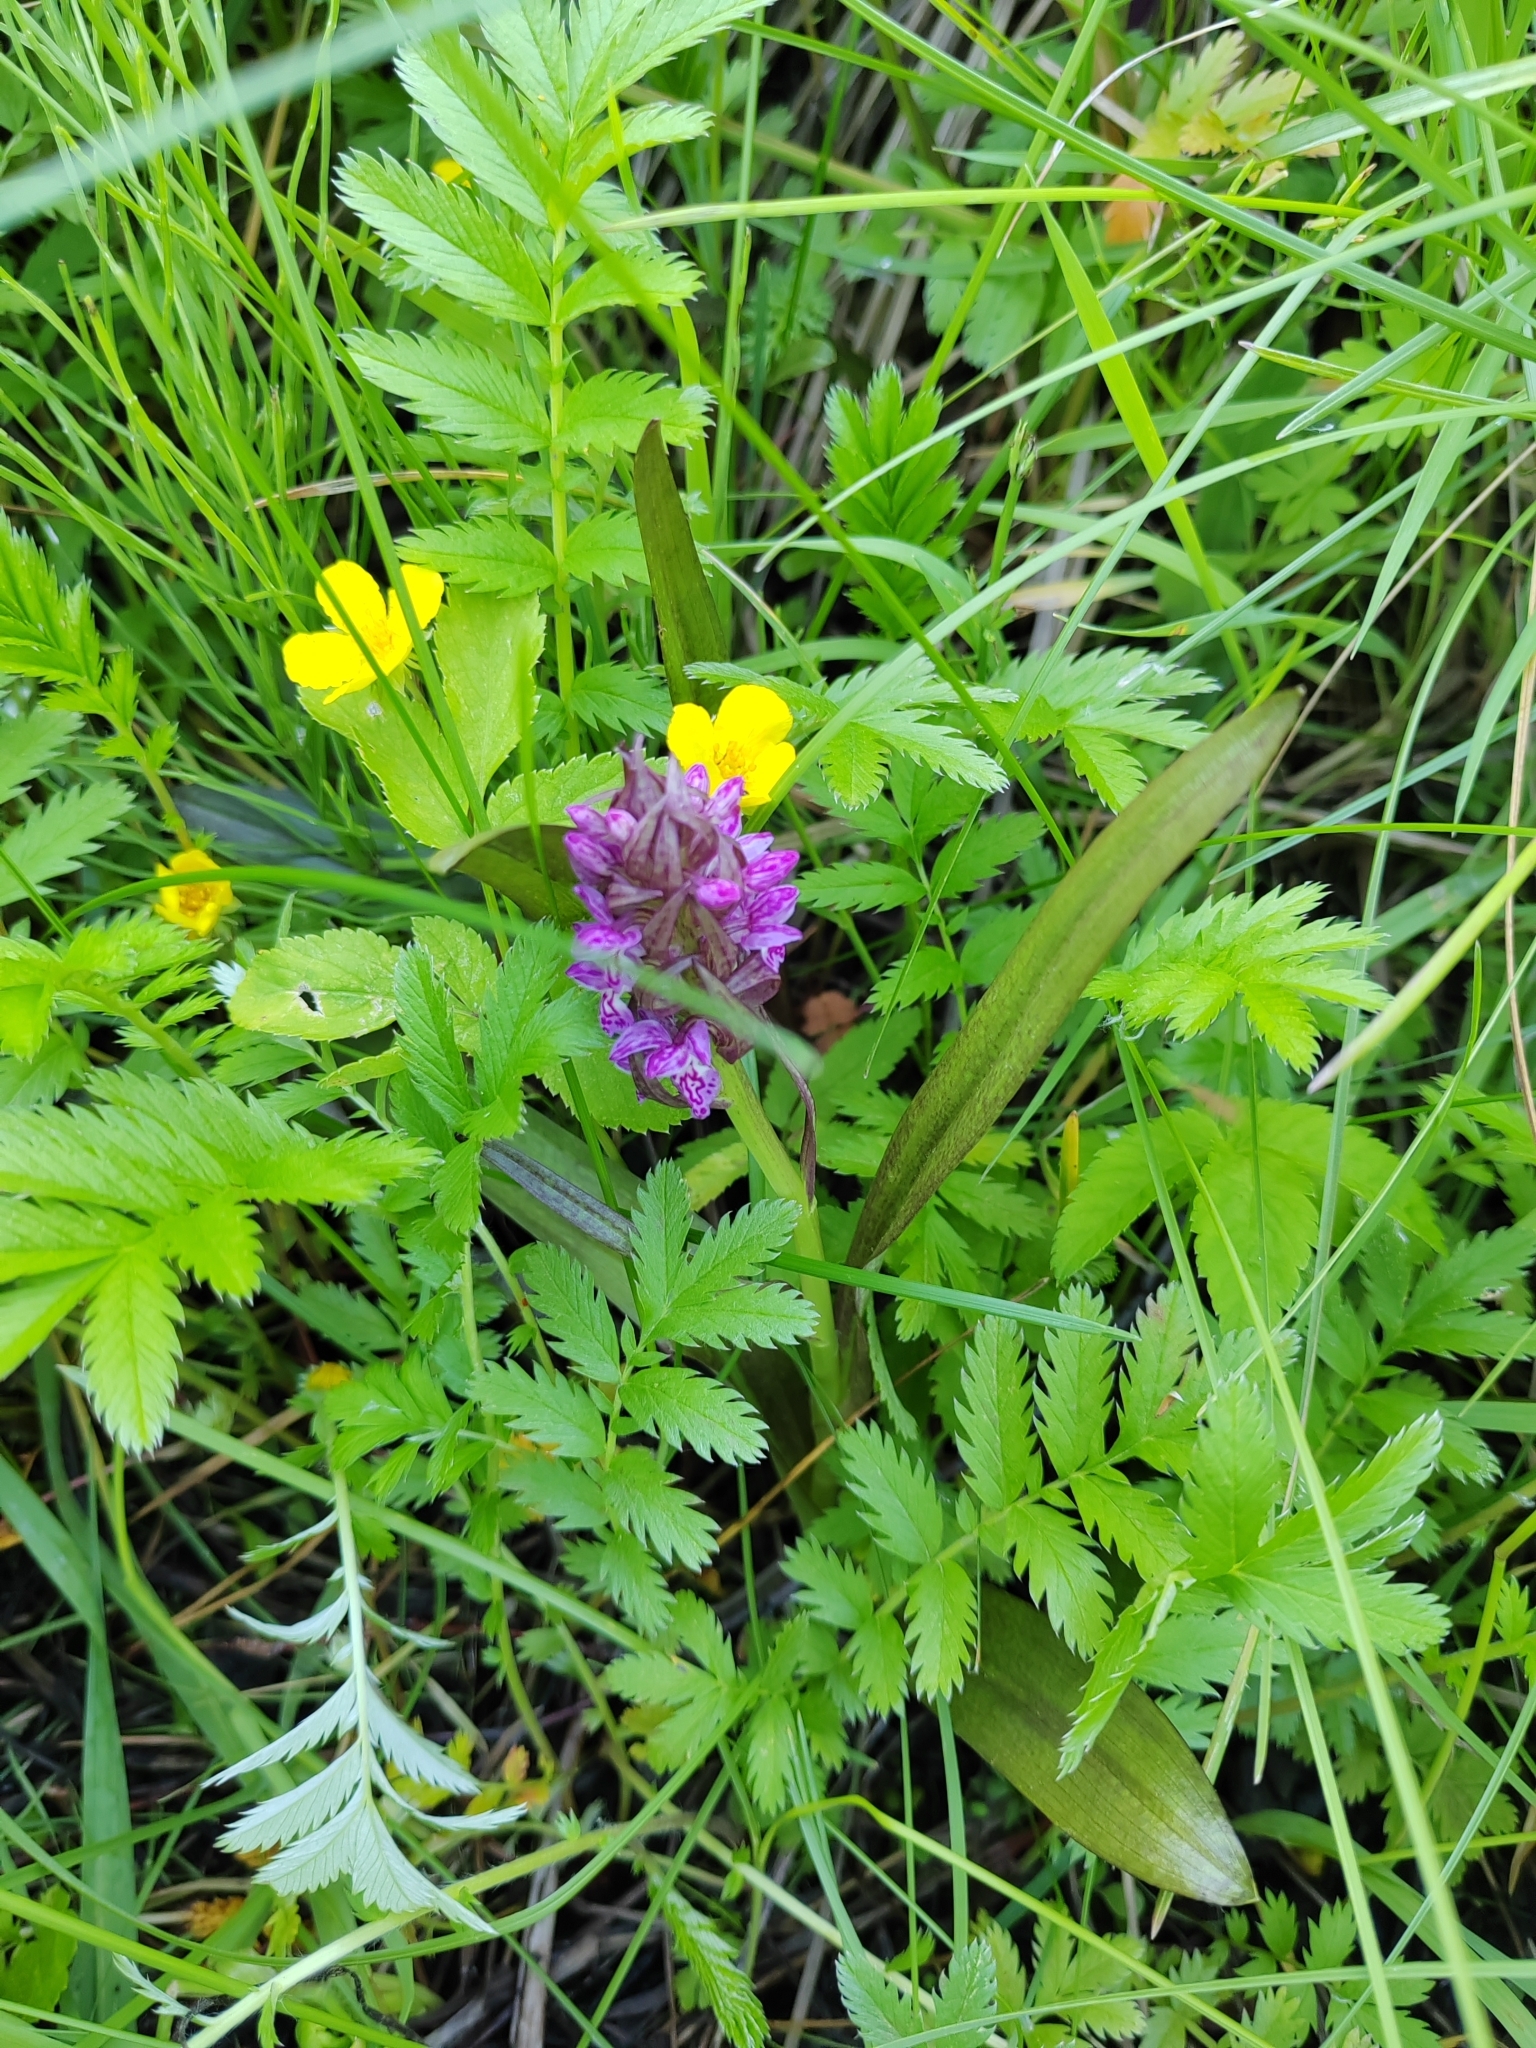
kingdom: Plantae
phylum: Tracheophyta
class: Liliopsida
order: Asparagales
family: Orchidaceae
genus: Dactylorhiza
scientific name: Dactylorhiza incarnata
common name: Early marsh-orchid
